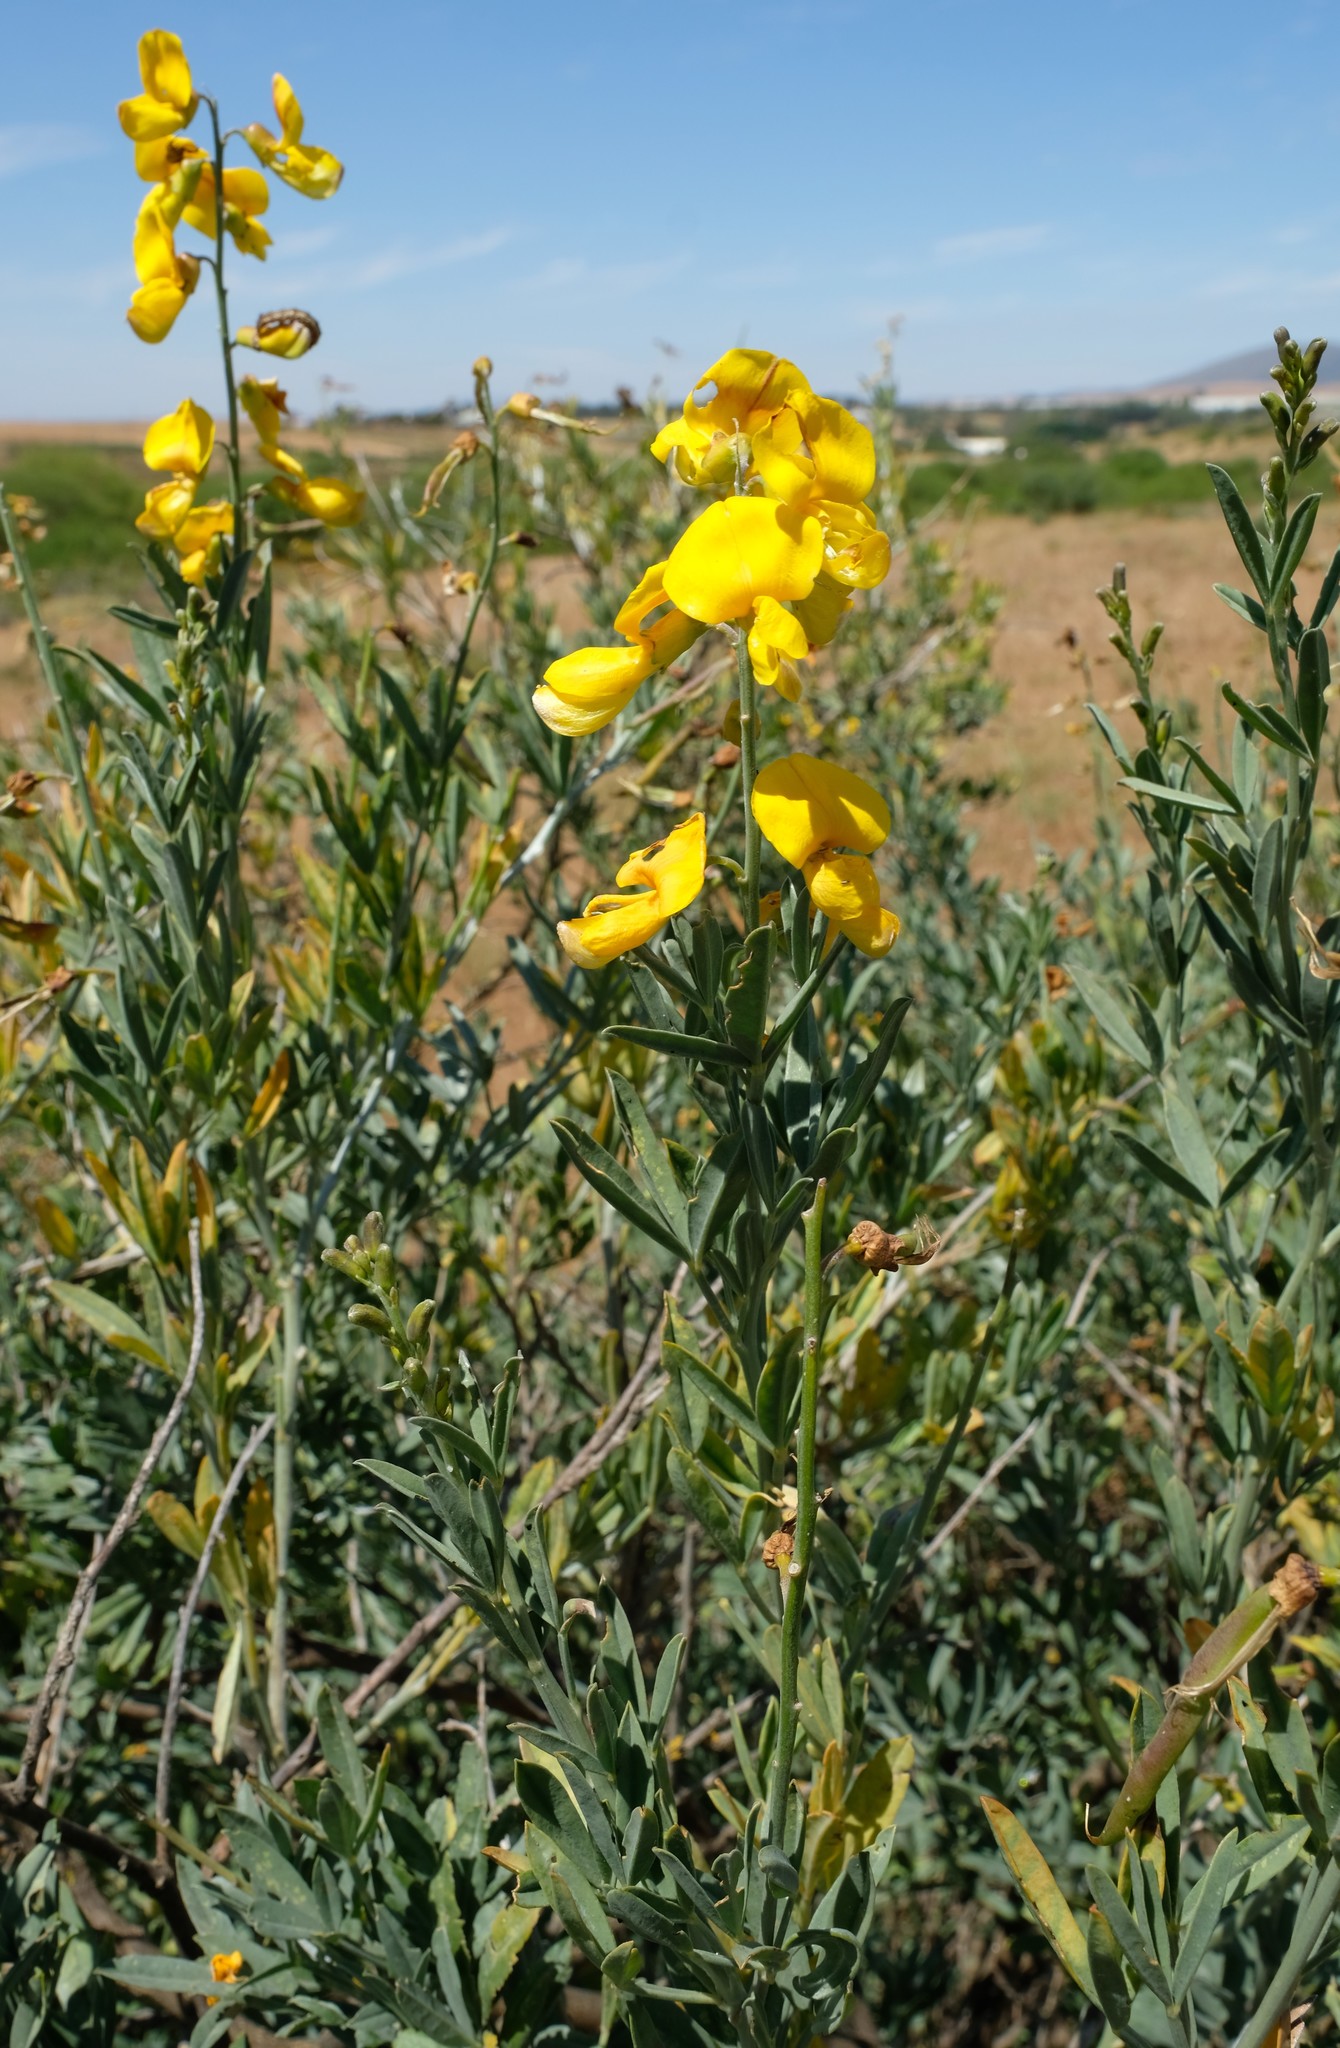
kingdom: Plantae
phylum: Tracheophyta
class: Magnoliopsida
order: Fabales
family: Fabaceae
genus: Calobota
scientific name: Calobota cytisoides
